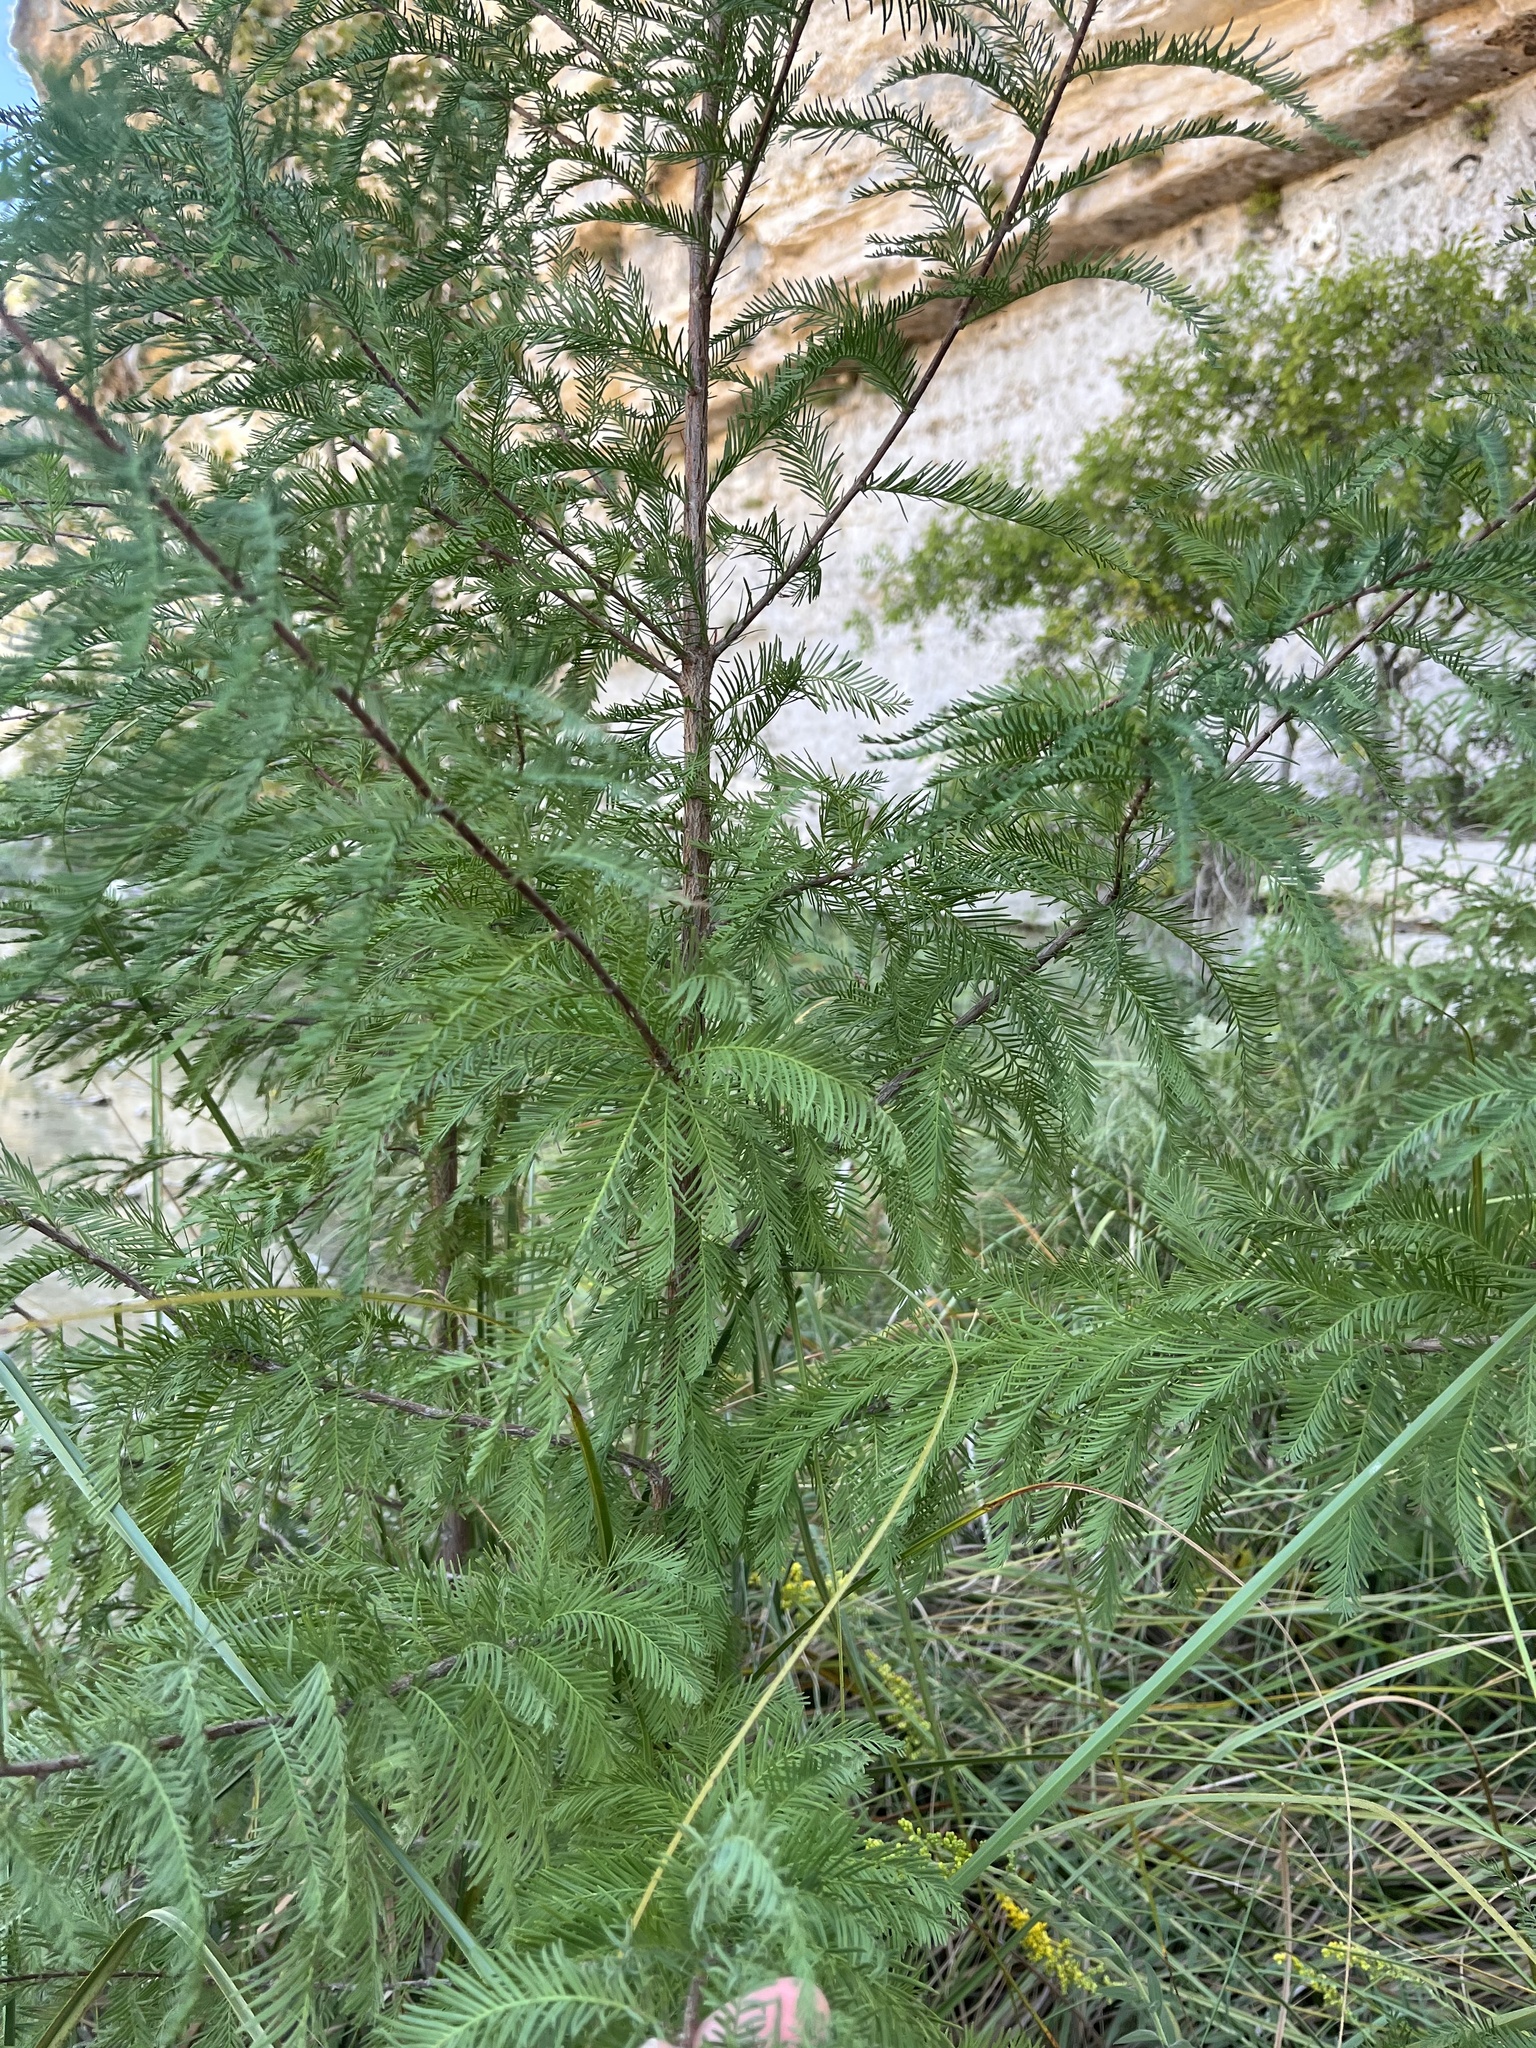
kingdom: Plantae
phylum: Tracheophyta
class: Pinopsida
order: Pinales
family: Cupressaceae
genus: Taxodium
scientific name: Taxodium distichum
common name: Bald cypress
